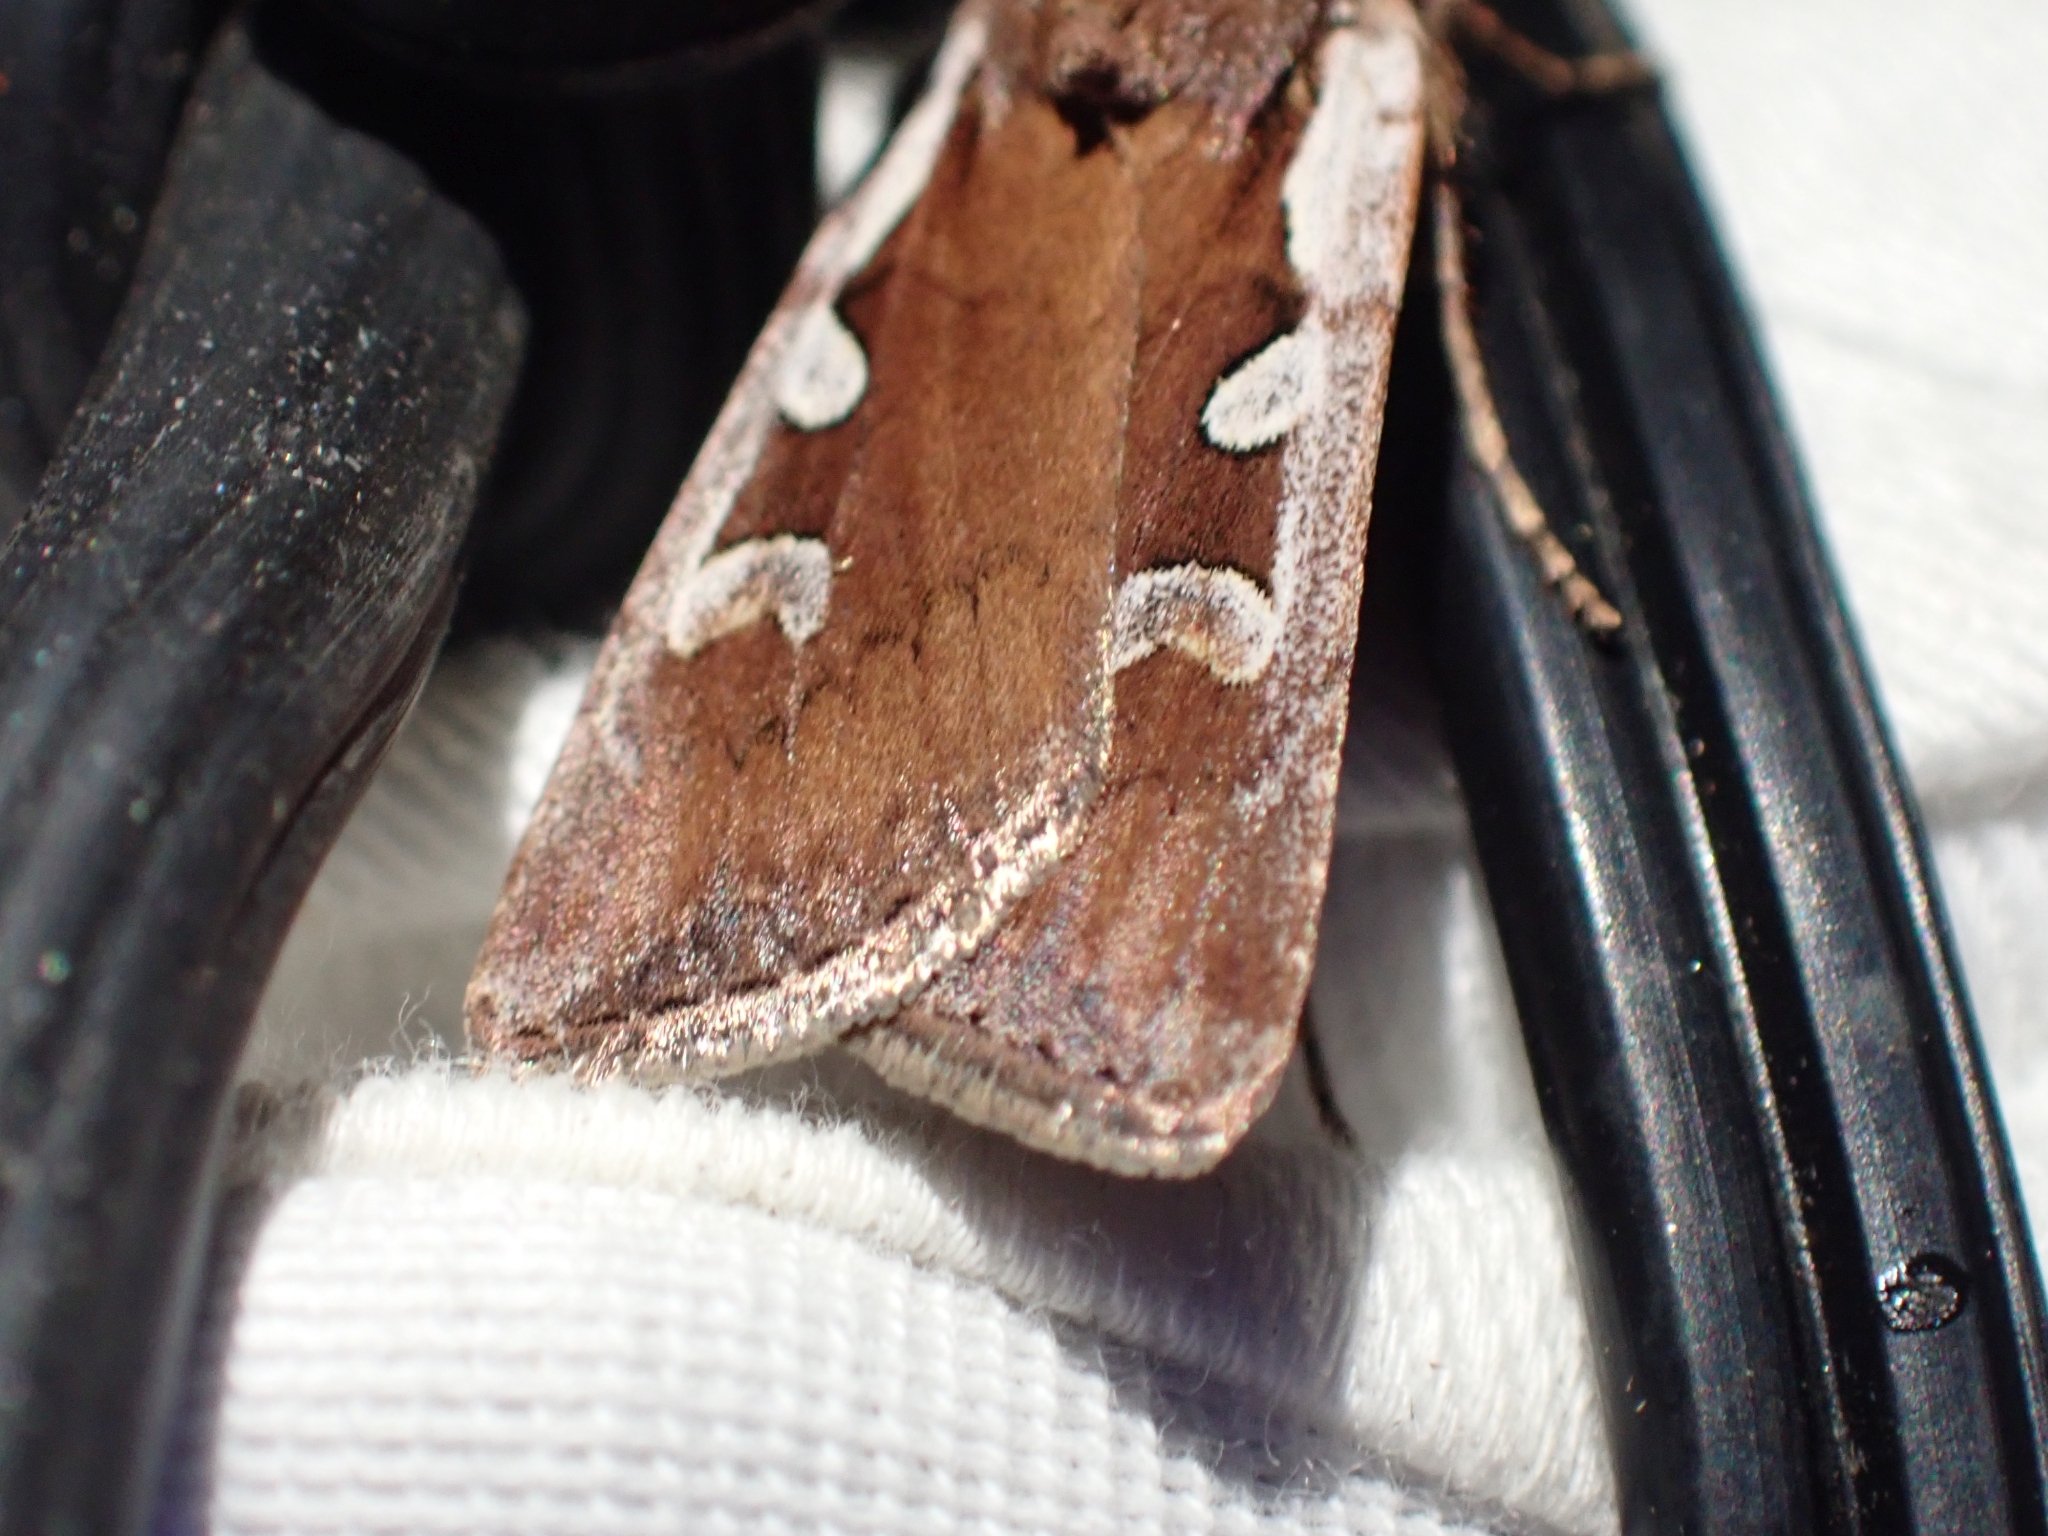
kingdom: Animalia
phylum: Arthropoda
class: Insecta
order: Lepidoptera
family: Noctuidae
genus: Euxoa
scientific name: Euxoa costata
